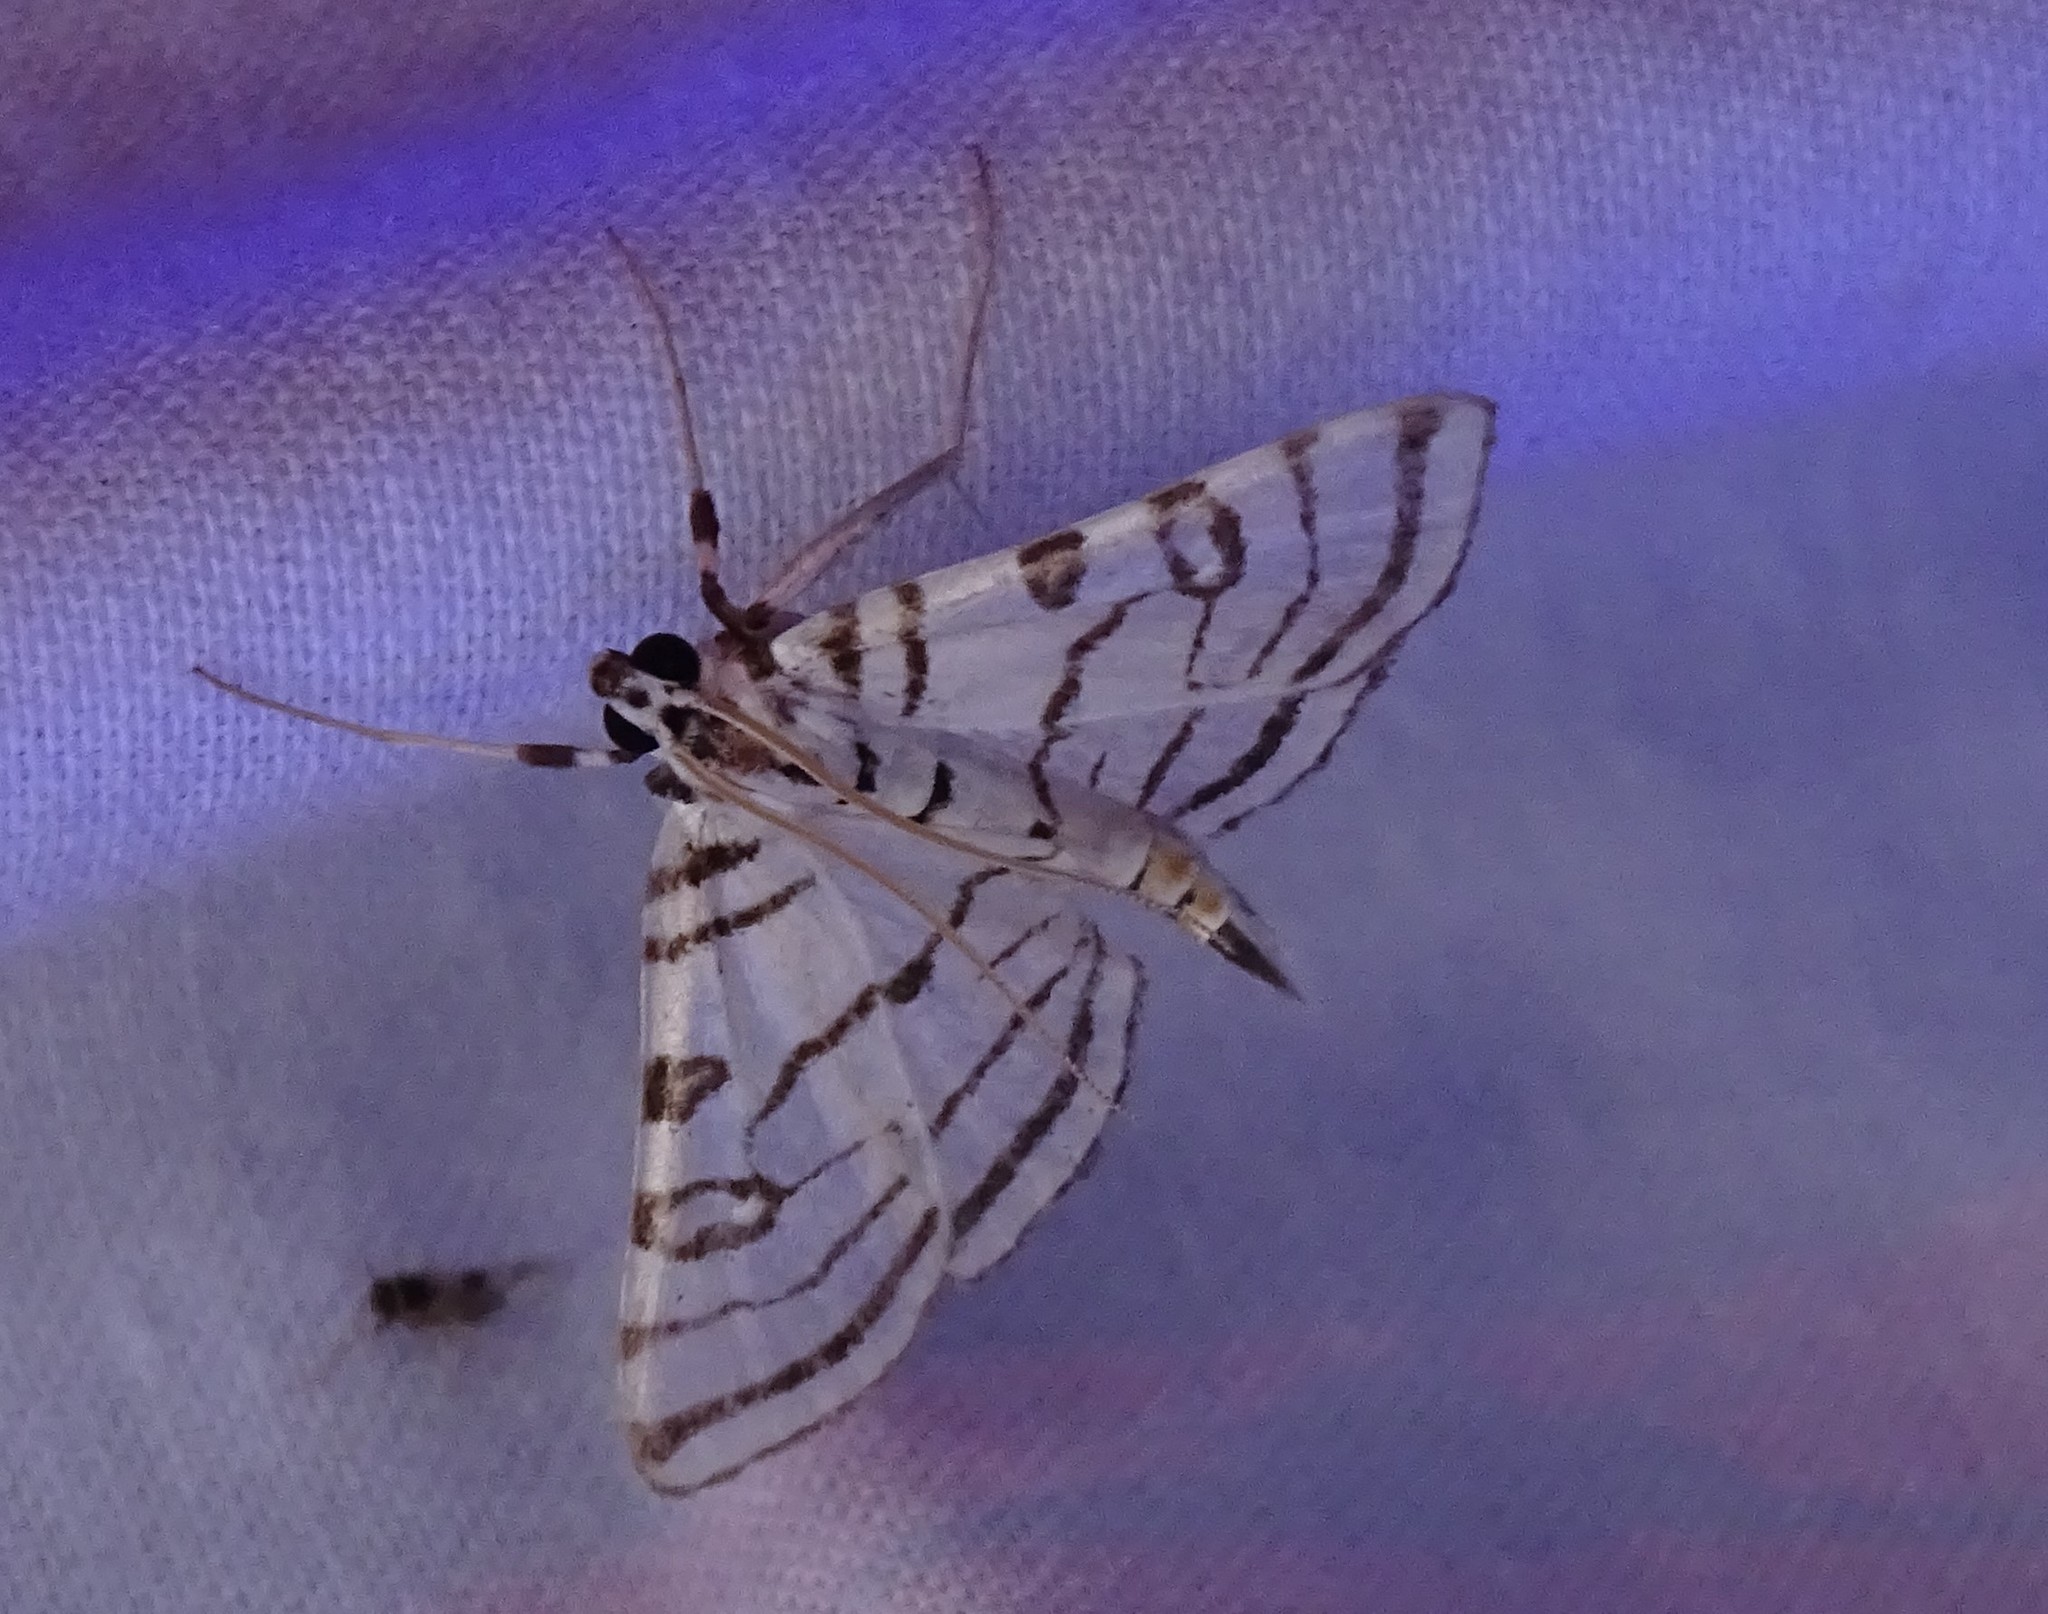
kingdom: Animalia
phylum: Arthropoda
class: Insecta
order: Lepidoptera
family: Crambidae
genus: Conchylodes
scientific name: Conchylodes concinnalis
